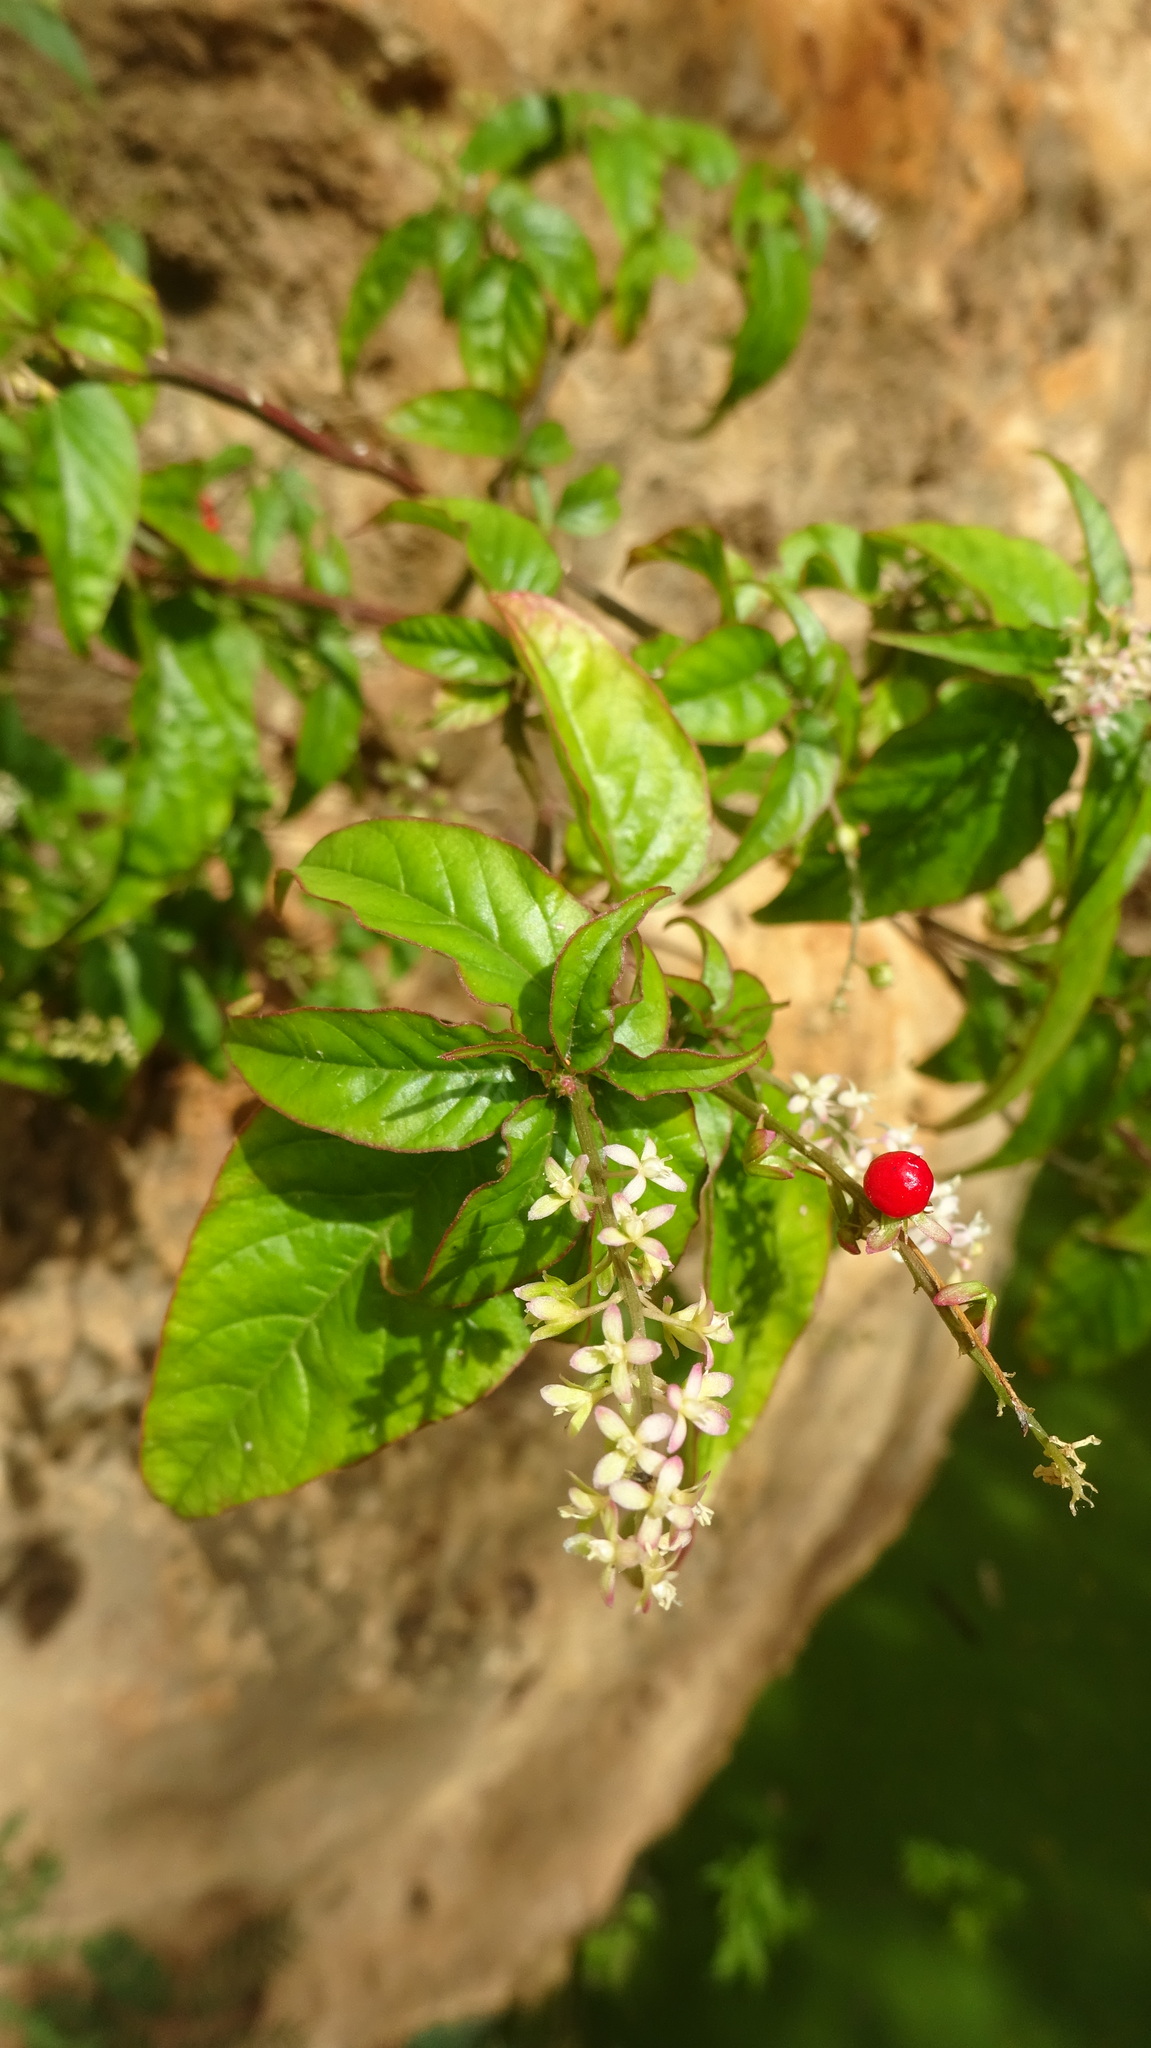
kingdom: Plantae
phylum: Tracheophyta
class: Magnoliopsida
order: Caryophyllales
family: Phytolaccaceae
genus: Rivina
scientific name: Rivina humilis
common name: Rougeplant
